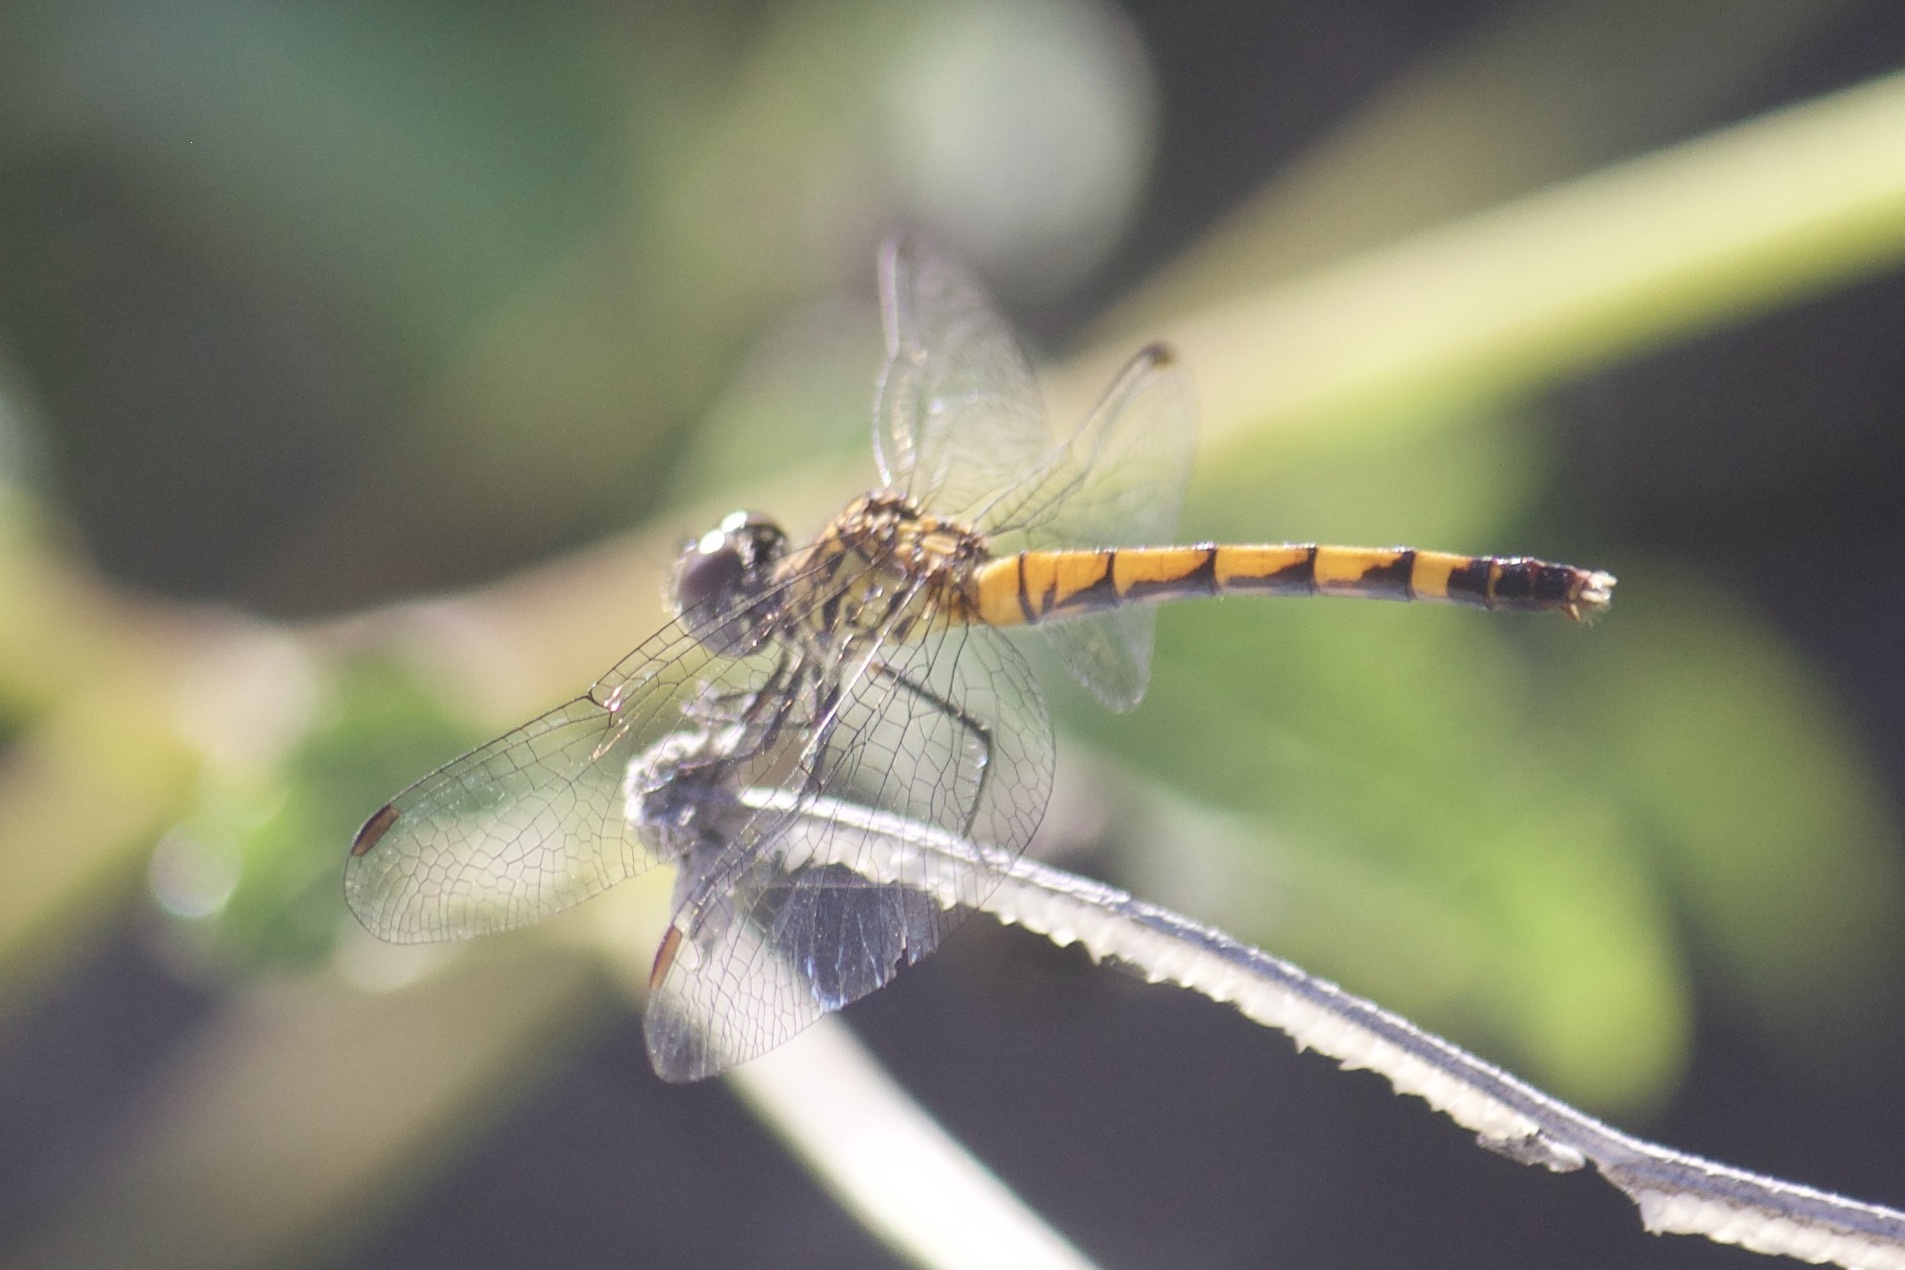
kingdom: Animalia
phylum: Arthropoda
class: Insecta
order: Odonata
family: Libellulidae
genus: Erythrodiplax
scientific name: Erythrodiplax berenice
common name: Seaside dragonlet
